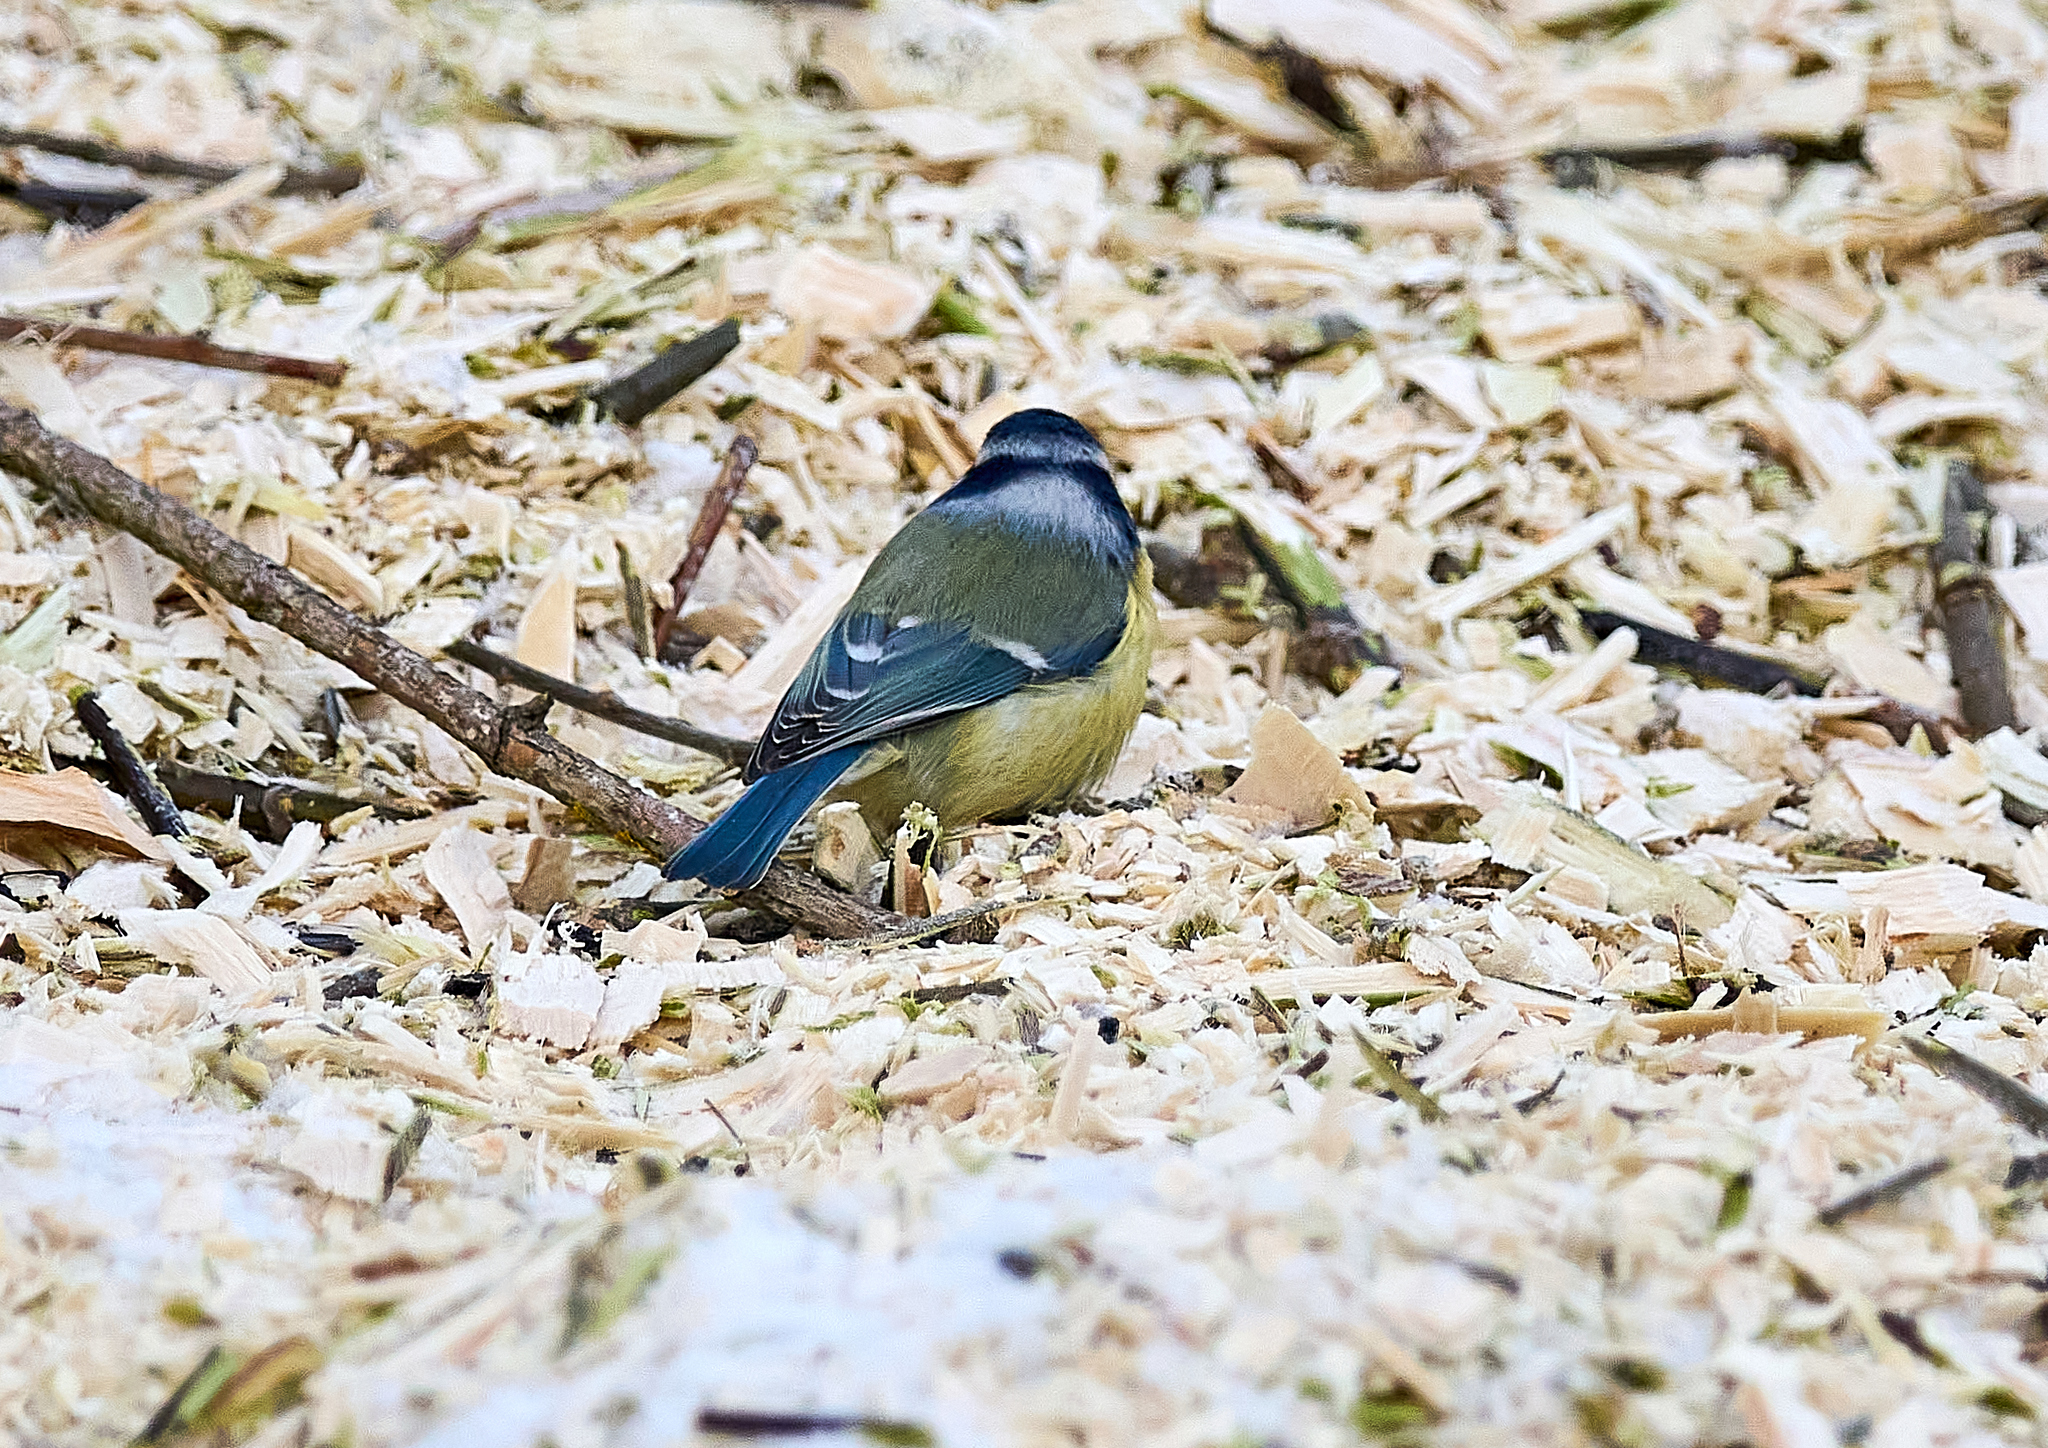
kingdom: Animalia
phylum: Chordata
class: Aves
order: Passeriformes
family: Paridae
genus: Cyanistes
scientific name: Cyanistes caeruleus
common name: Eurasian blue tit
